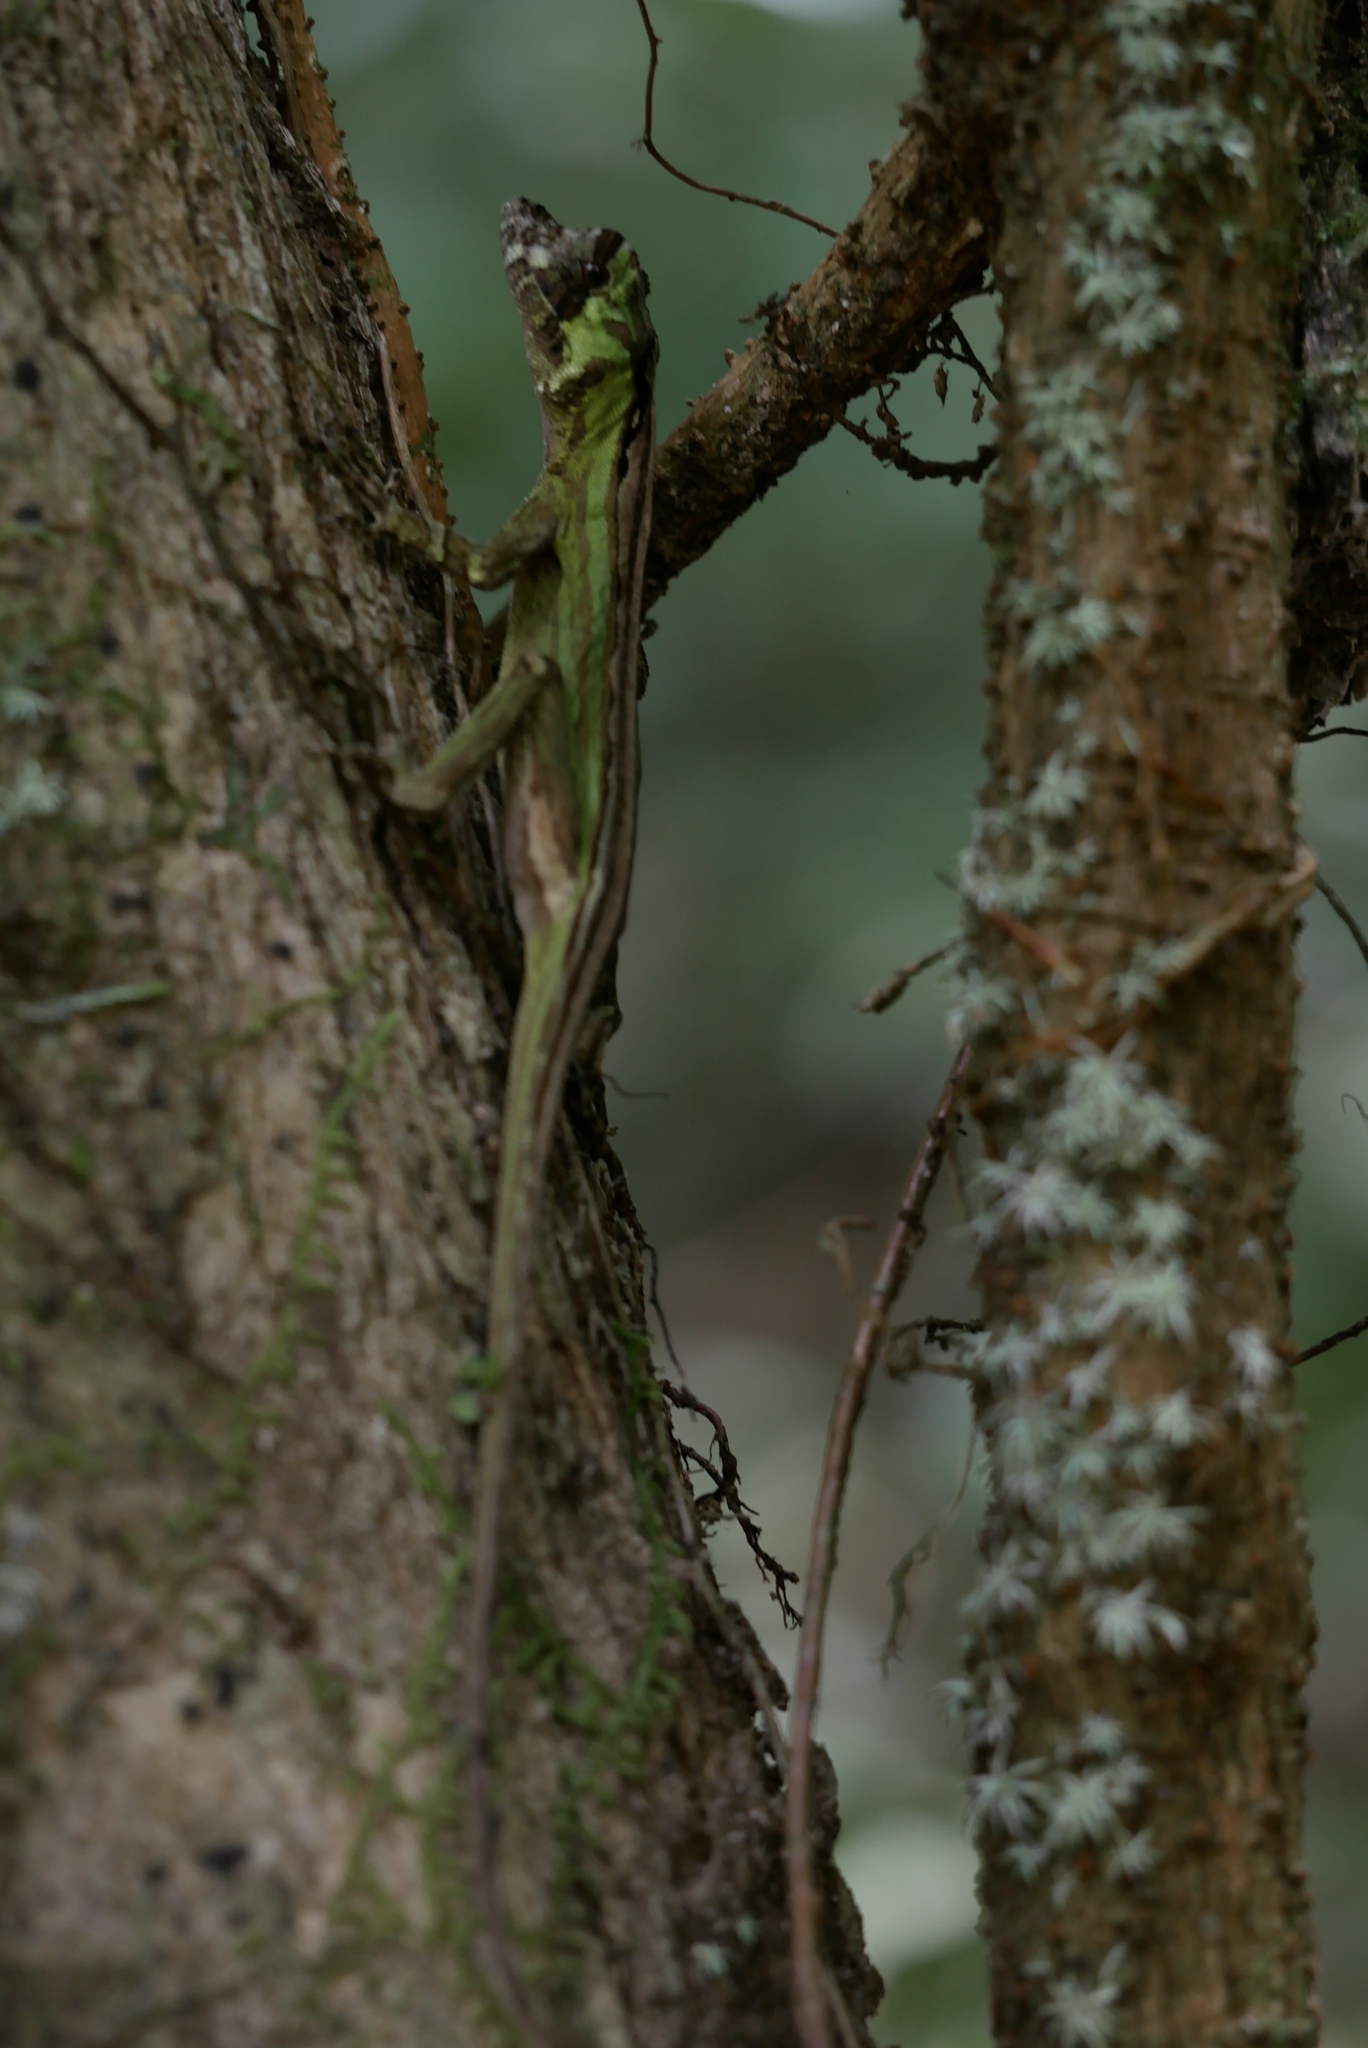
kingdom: Animalia
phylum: Chordata
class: Squamata
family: Dactyloidae
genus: Anolis
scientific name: Anolis capito
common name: Bighead anole
